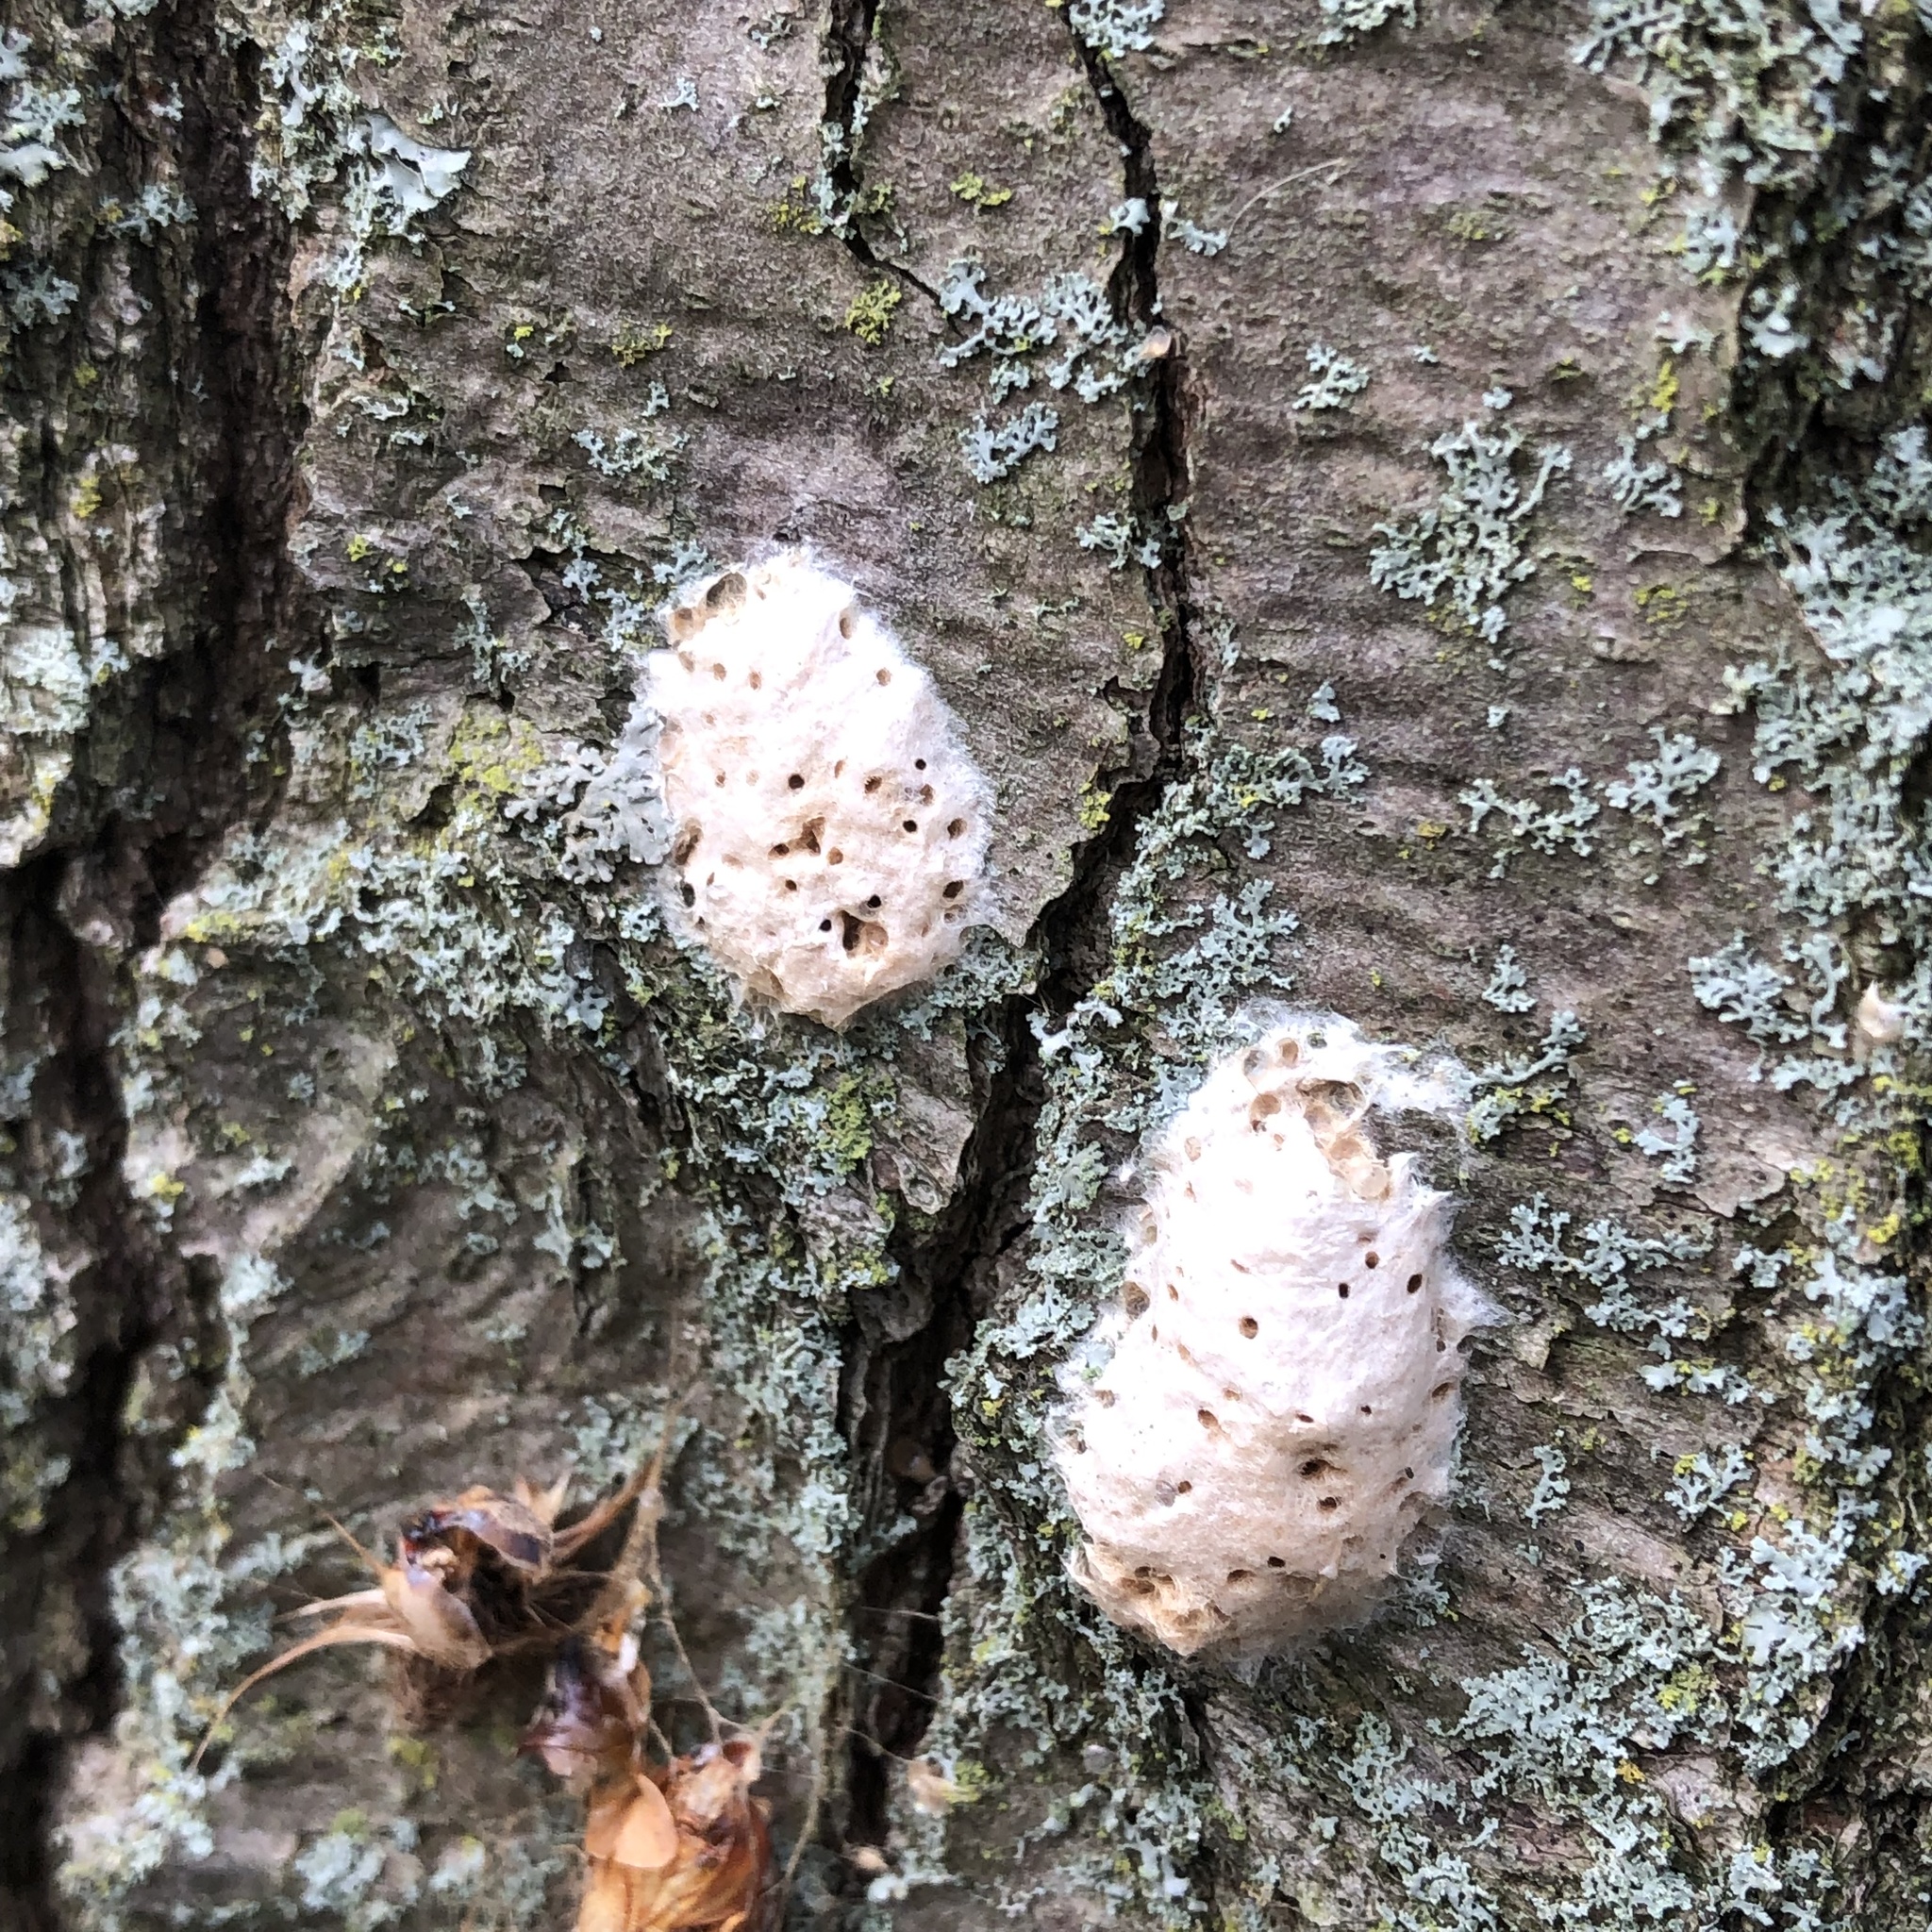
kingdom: Animalia
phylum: Arthropoda
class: Insecta
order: Lepidoptera
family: Erebidae
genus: Lymantria
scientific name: Lymantria dispar
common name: Gypsy moth
